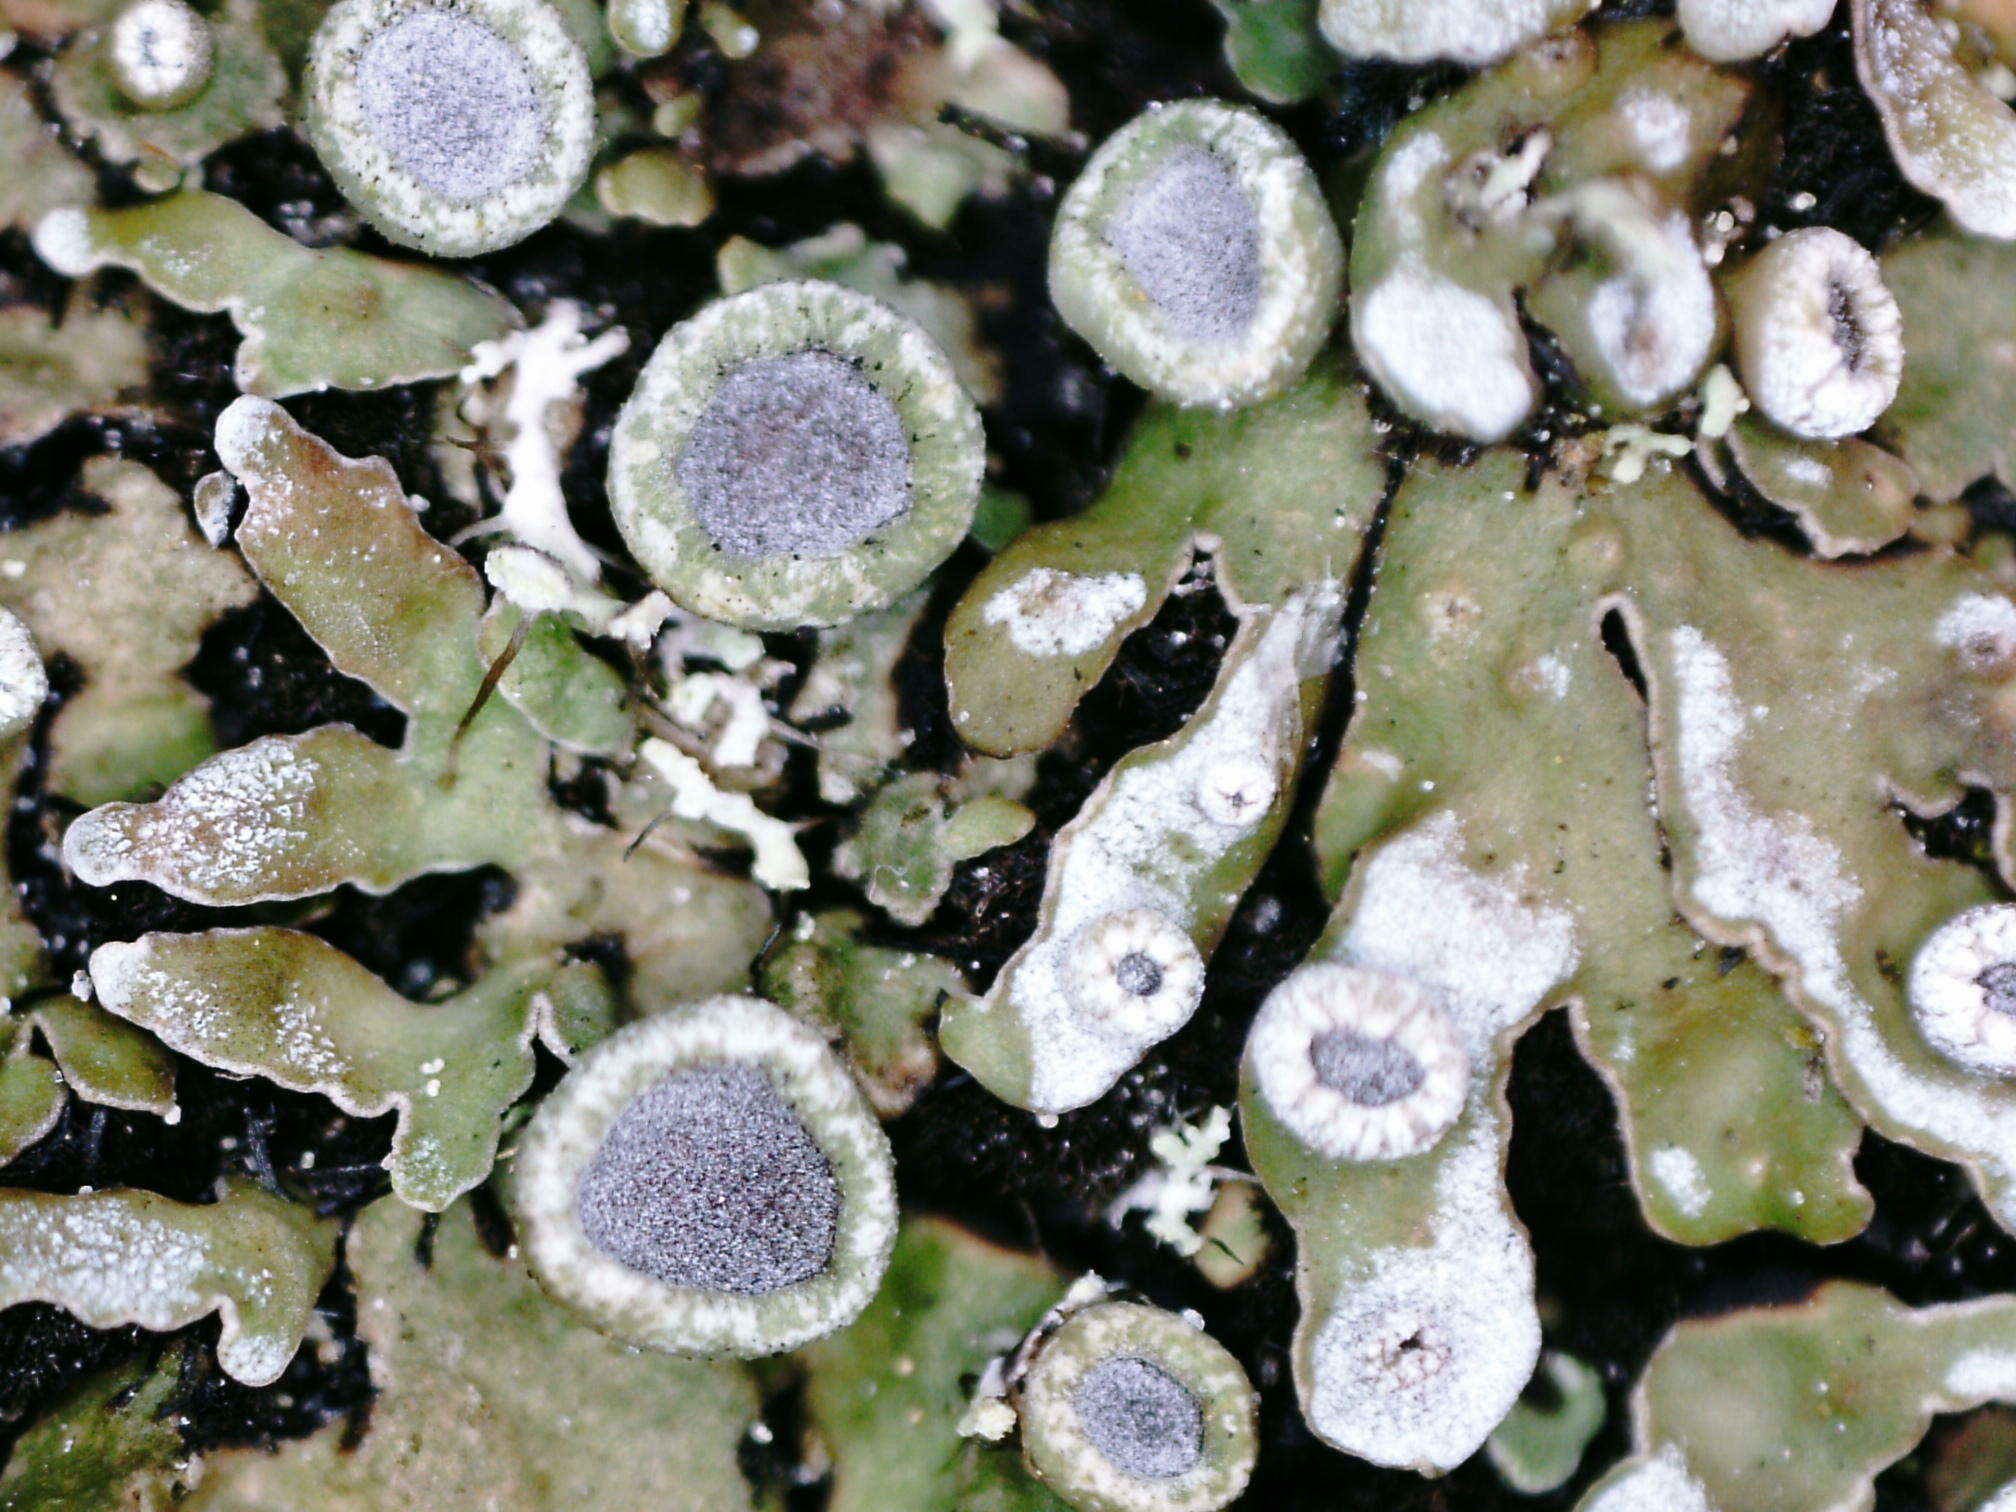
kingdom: Fungi
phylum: Ascomycota
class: Lecanoromycetes
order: Caliciales
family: Physciaceae
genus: Physconia
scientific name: Physconia distorta
